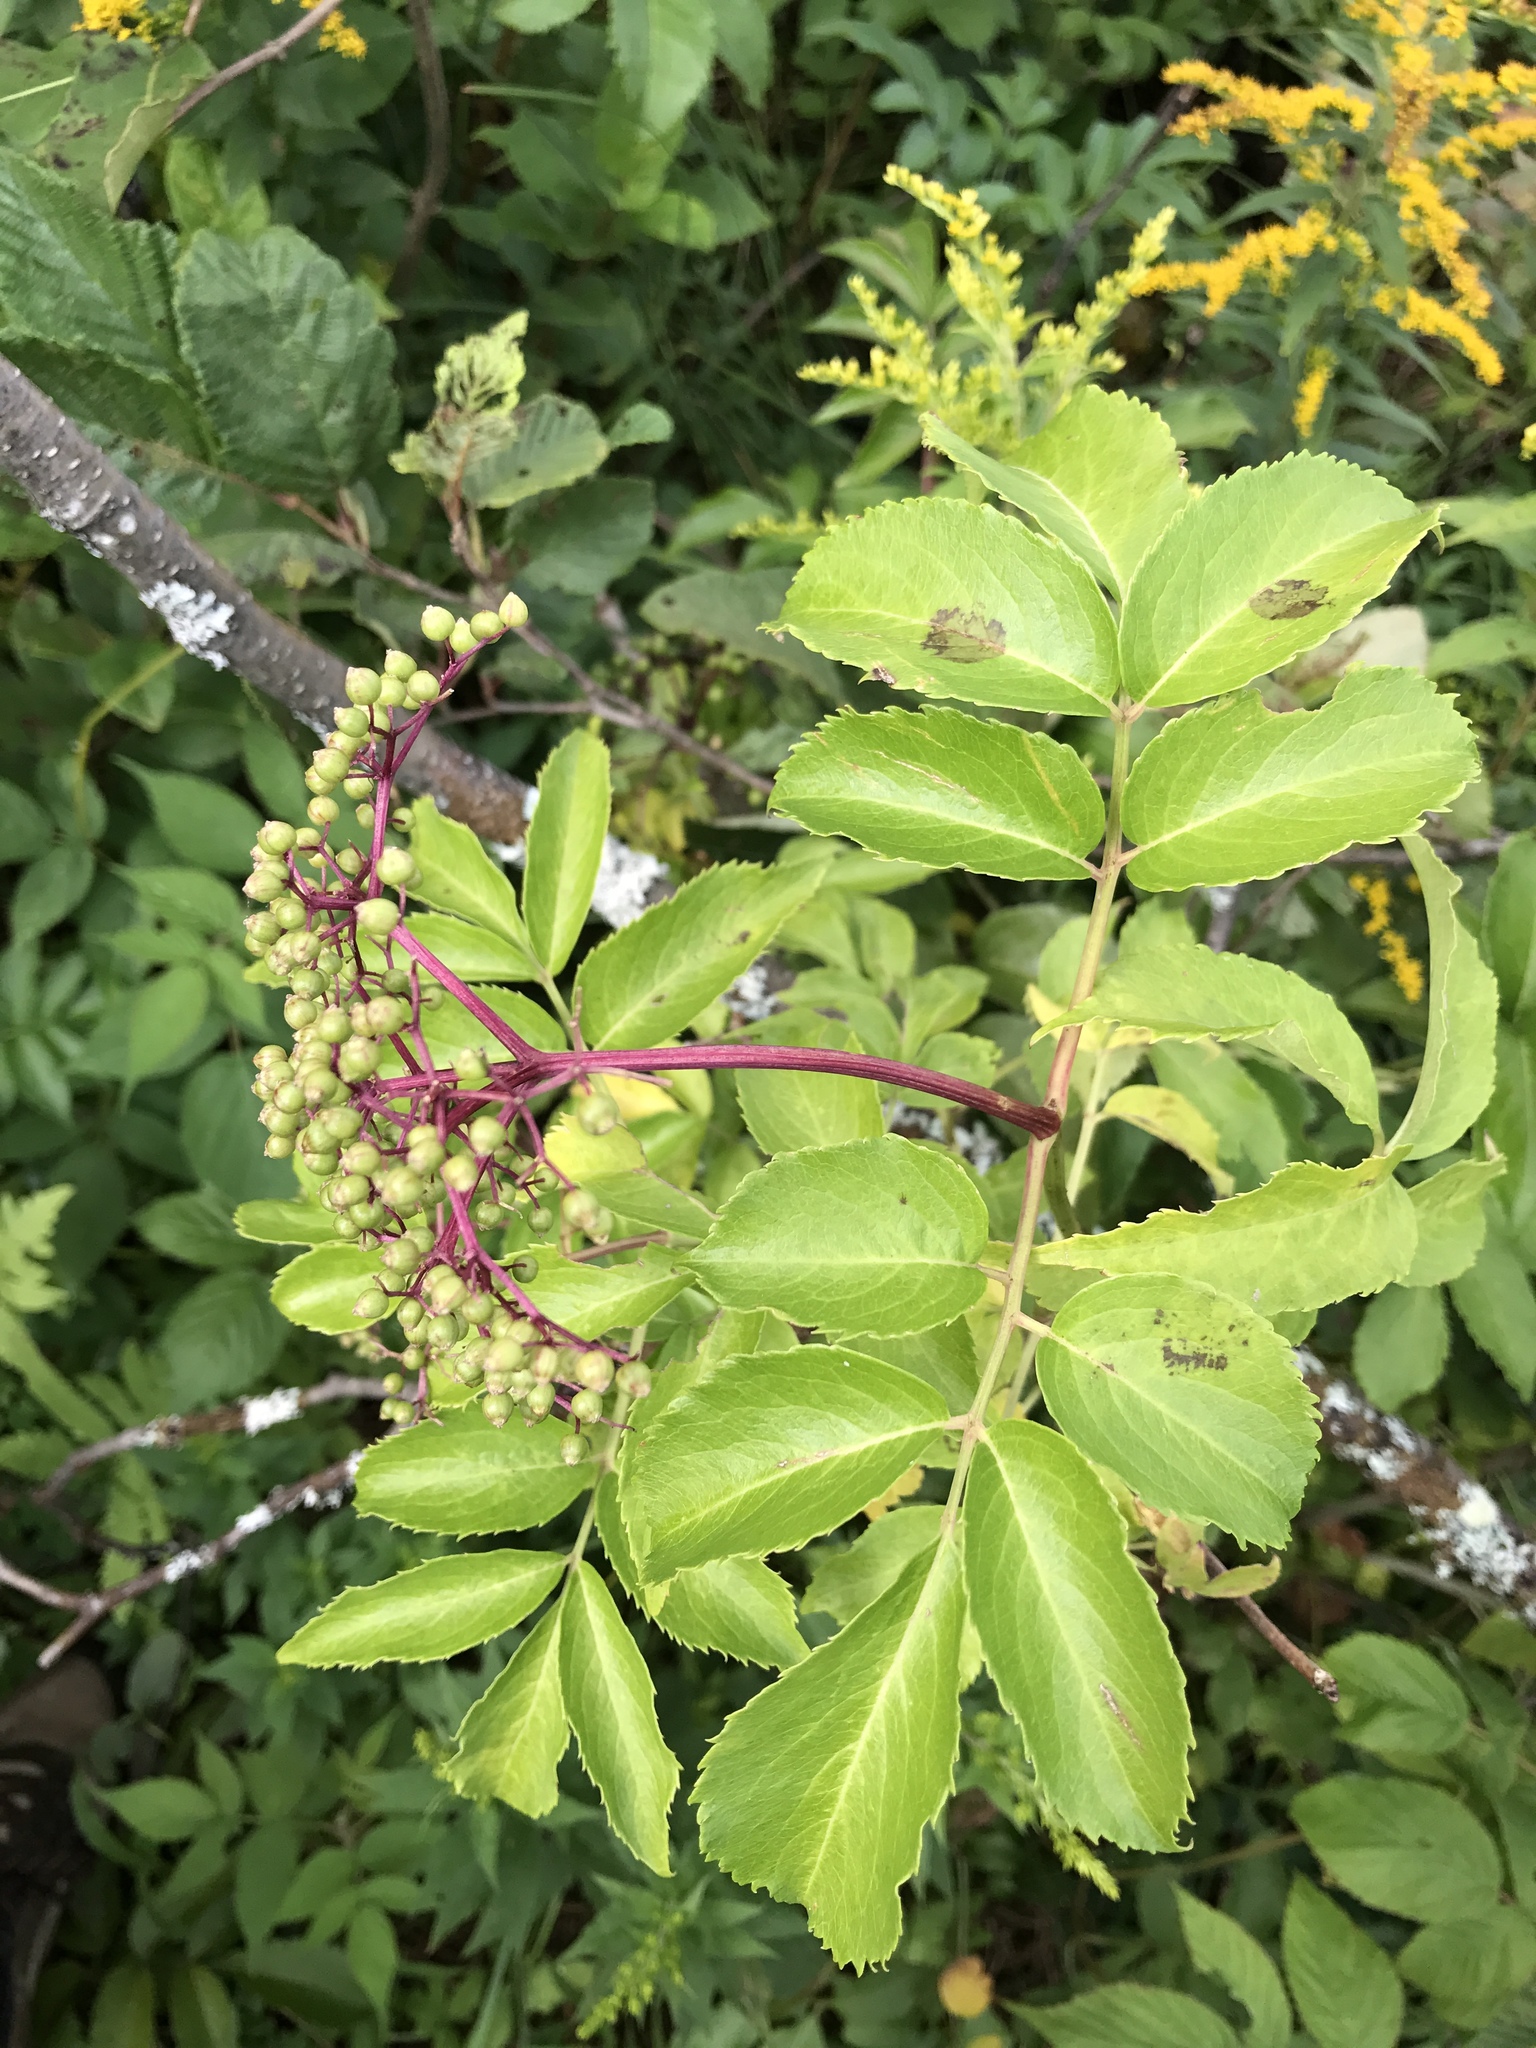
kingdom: Plantae
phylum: Tracheophyta
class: Magnoliopsida
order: Dipsacales
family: Viburnaceae
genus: Sambucus
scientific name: Sambucus canadensis
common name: American elder
